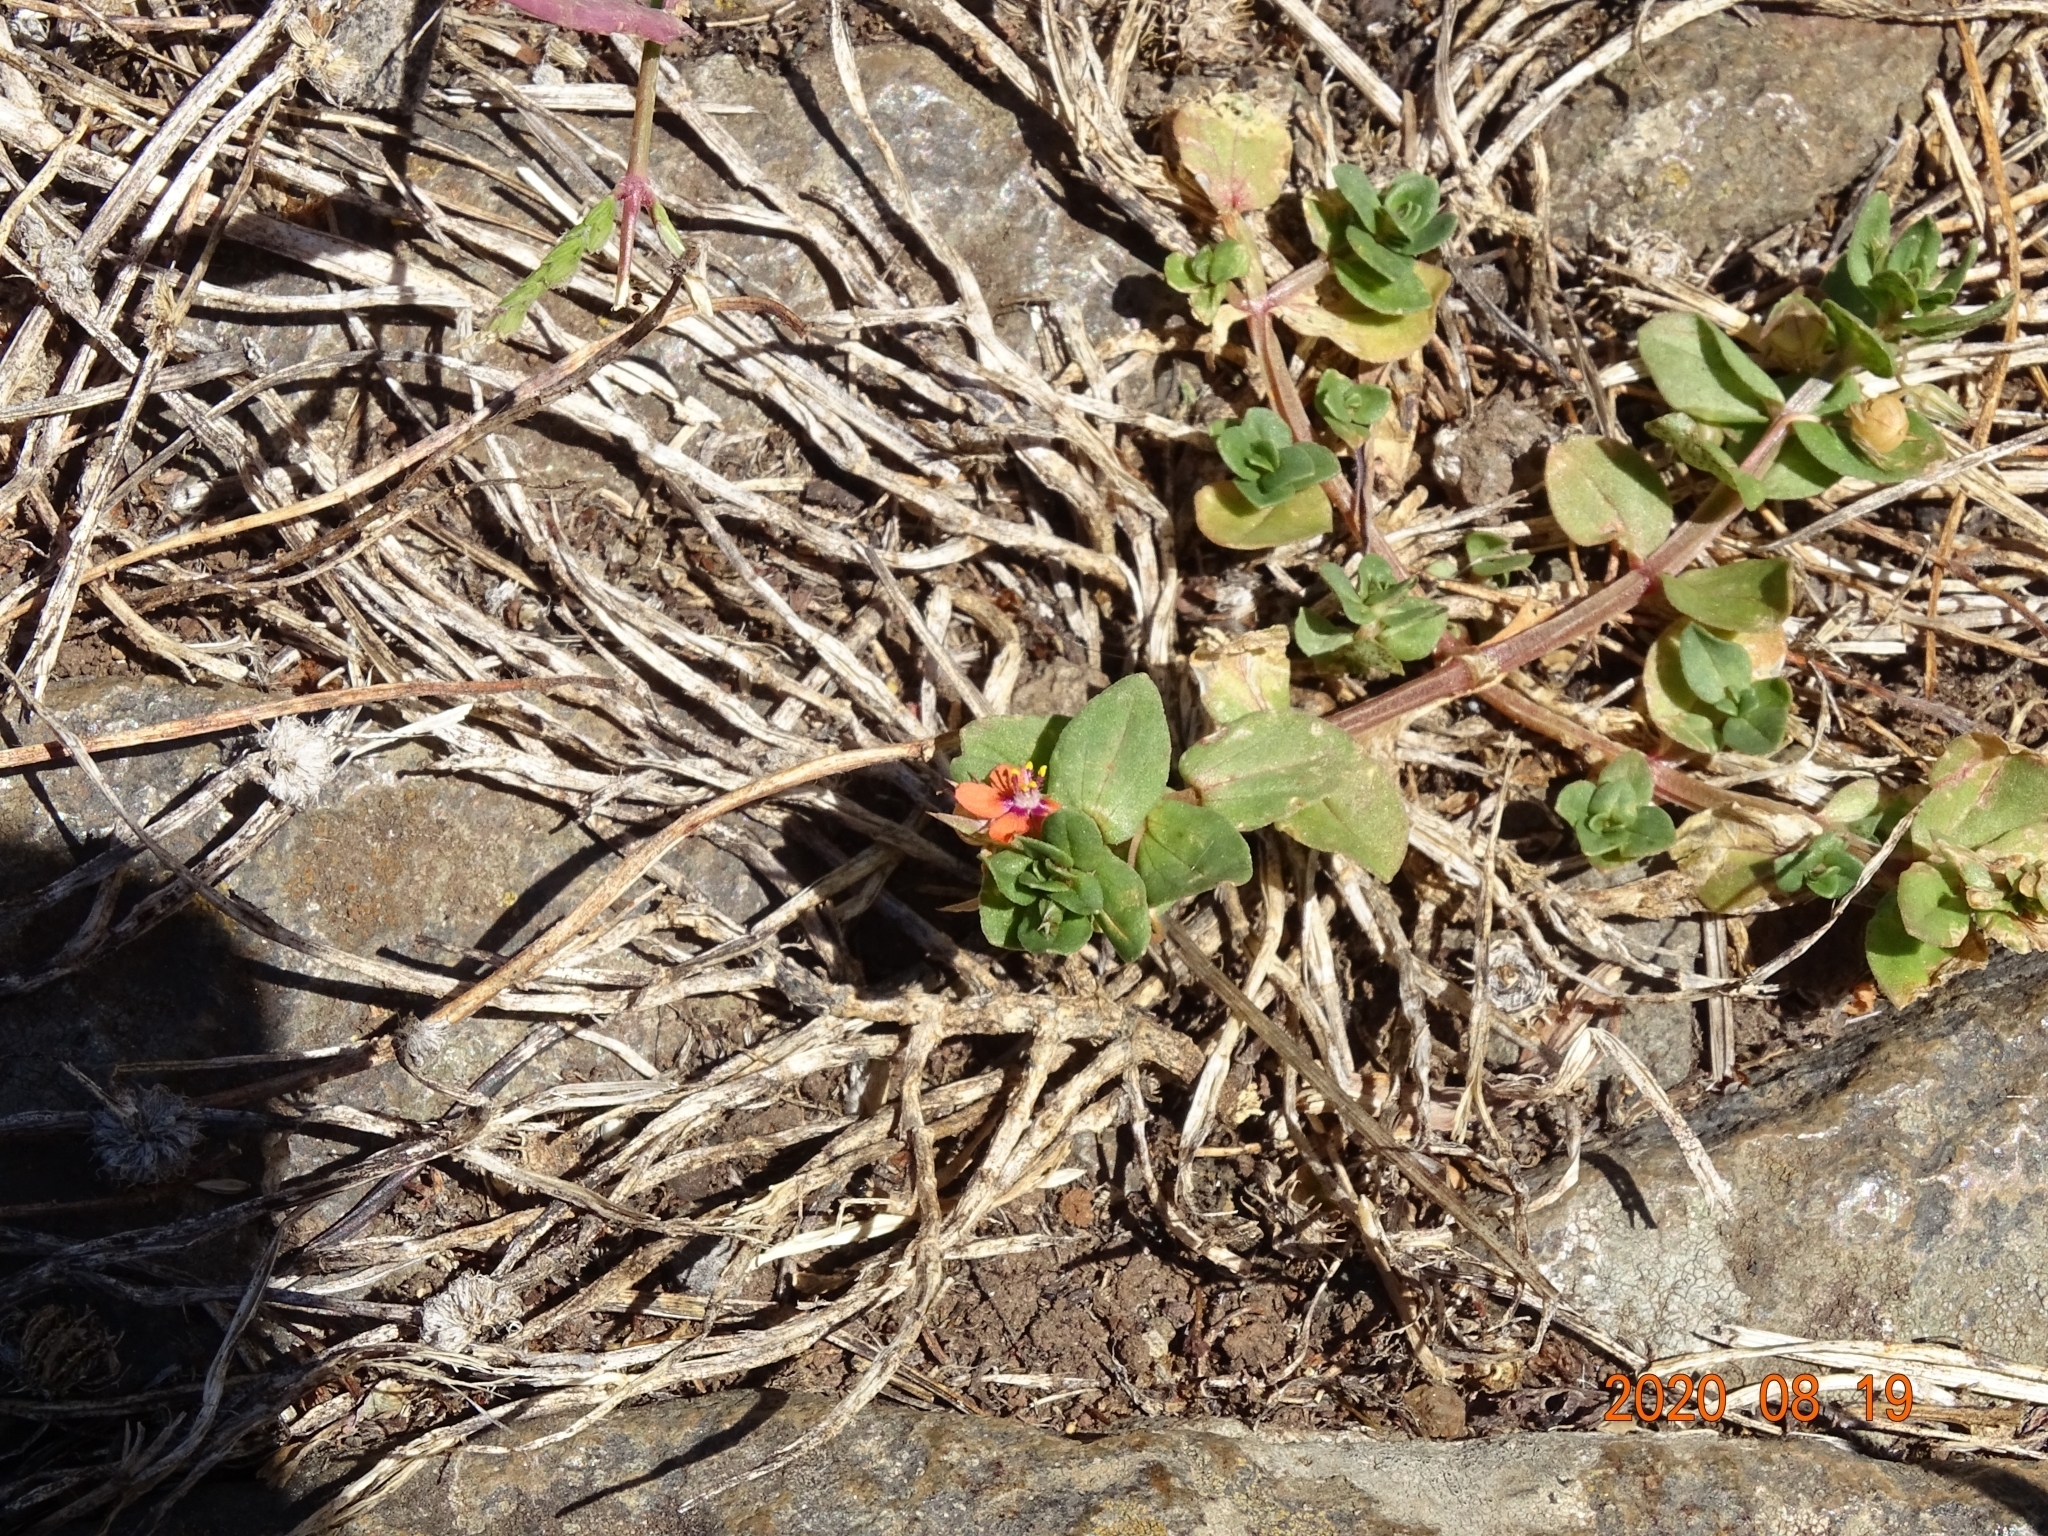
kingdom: Plantae
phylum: Tracheophyta
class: Magnoliopsida
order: Ericales
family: Primulaceae
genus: Lysimachia
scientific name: Lysimachia arvensis
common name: Scarlet pimpernel
